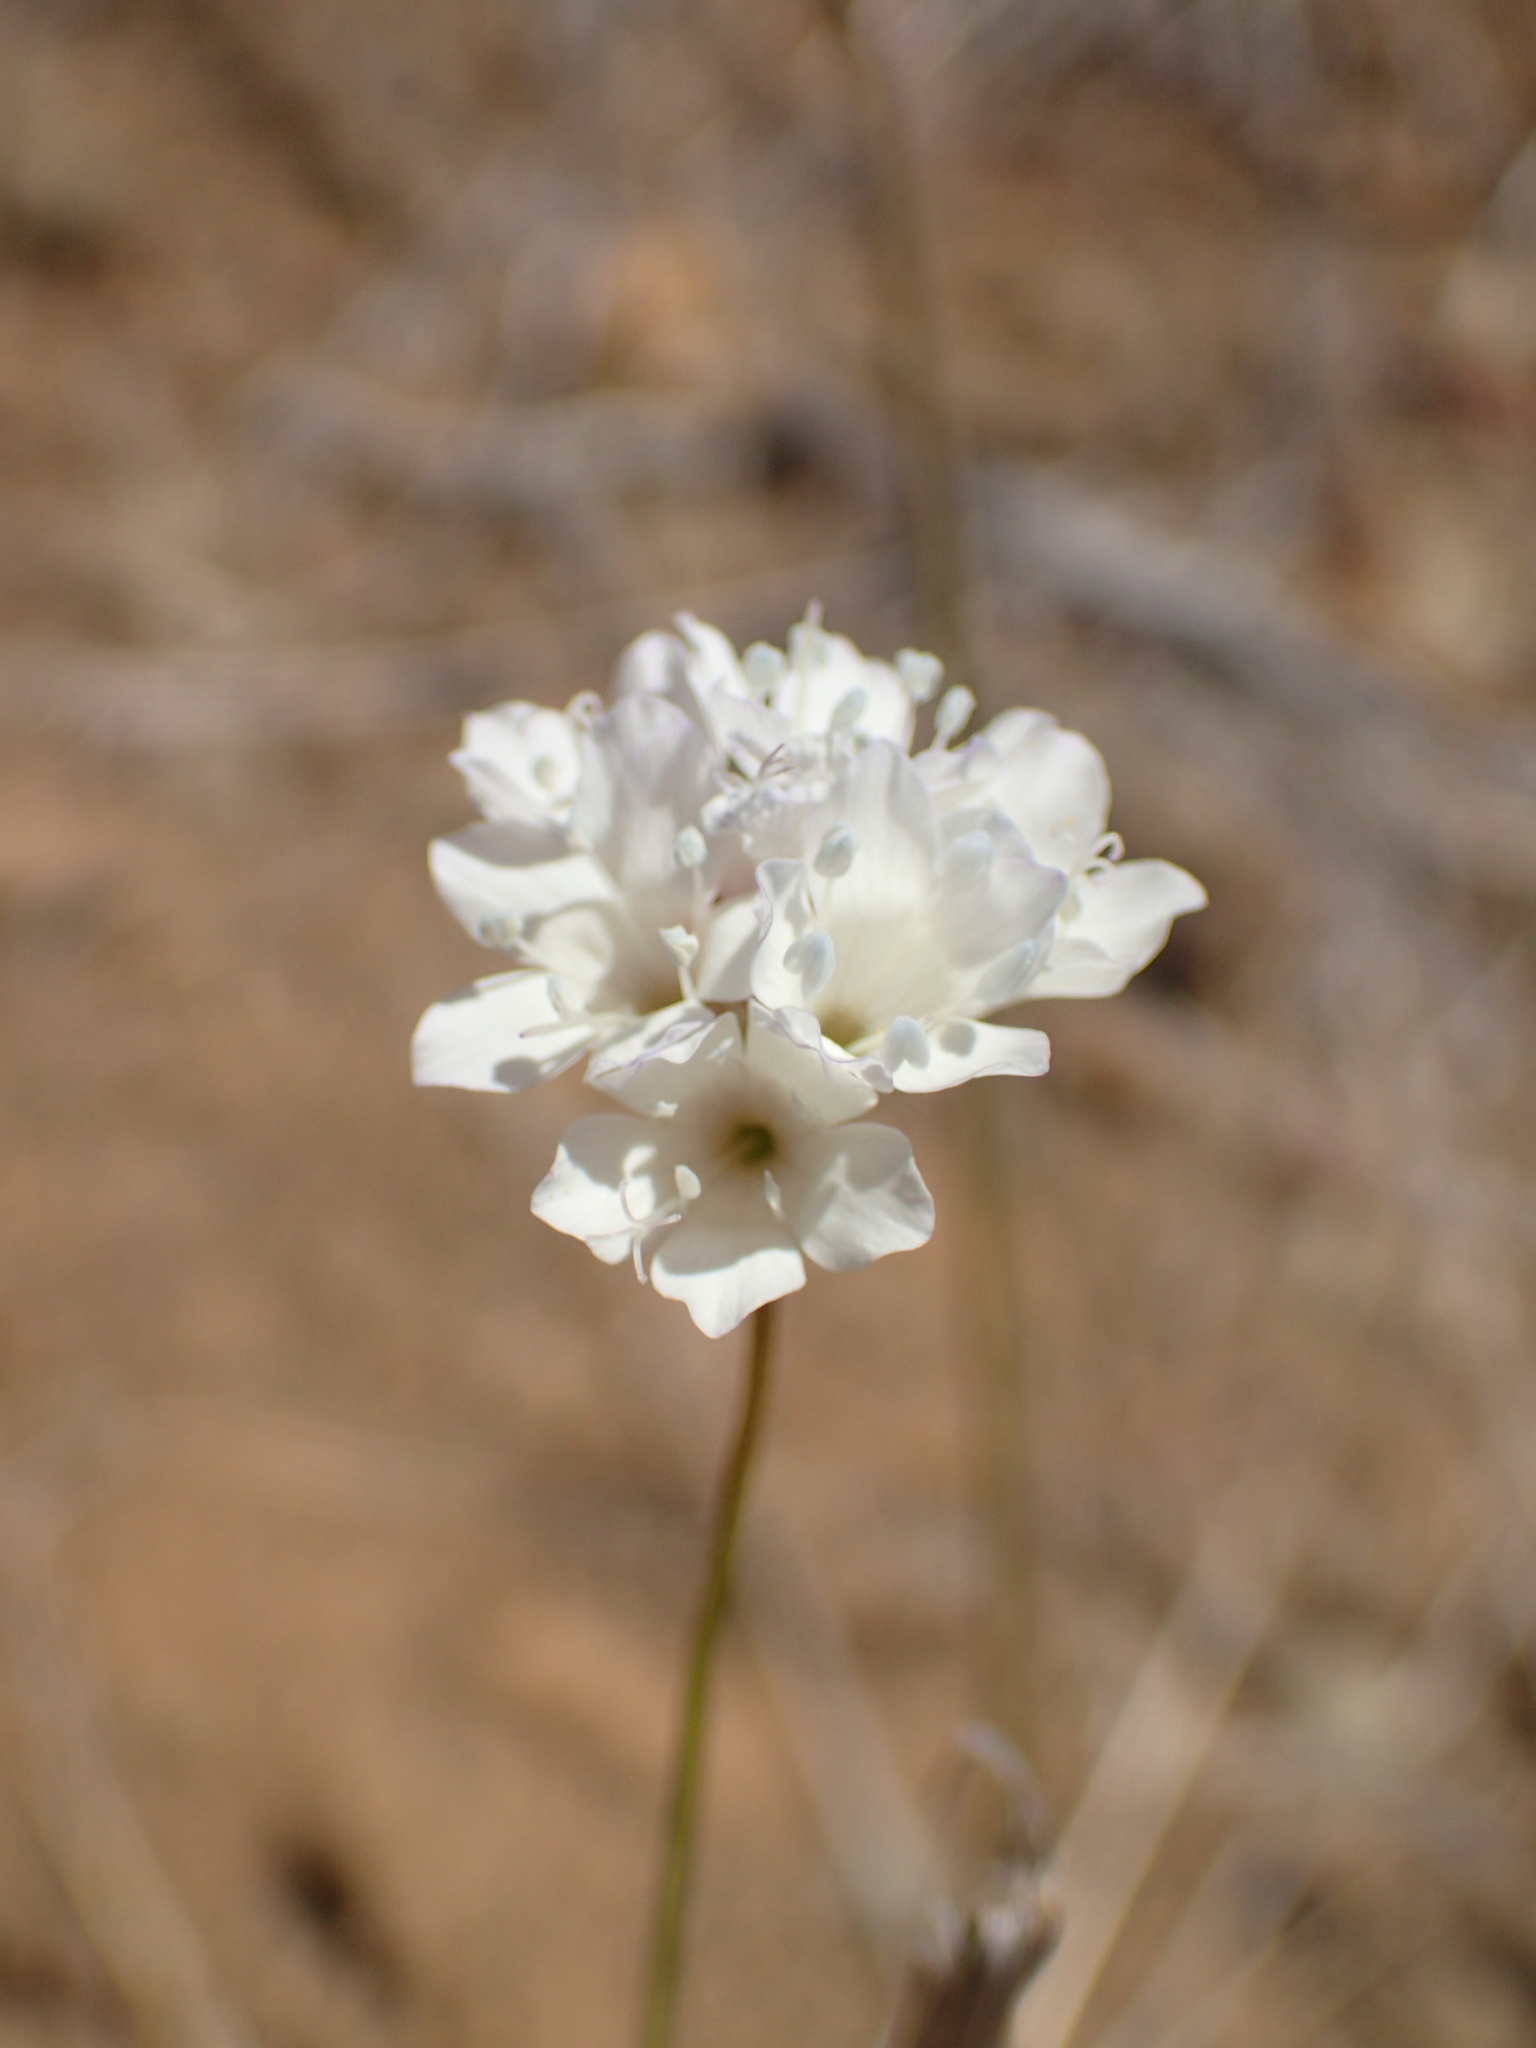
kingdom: Plantae
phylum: Tracheophyta
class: Magnoliopsida
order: Ericales
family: Polemoniaceae
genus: Gilia
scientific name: Gilia capitata
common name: Bluehead gilia
